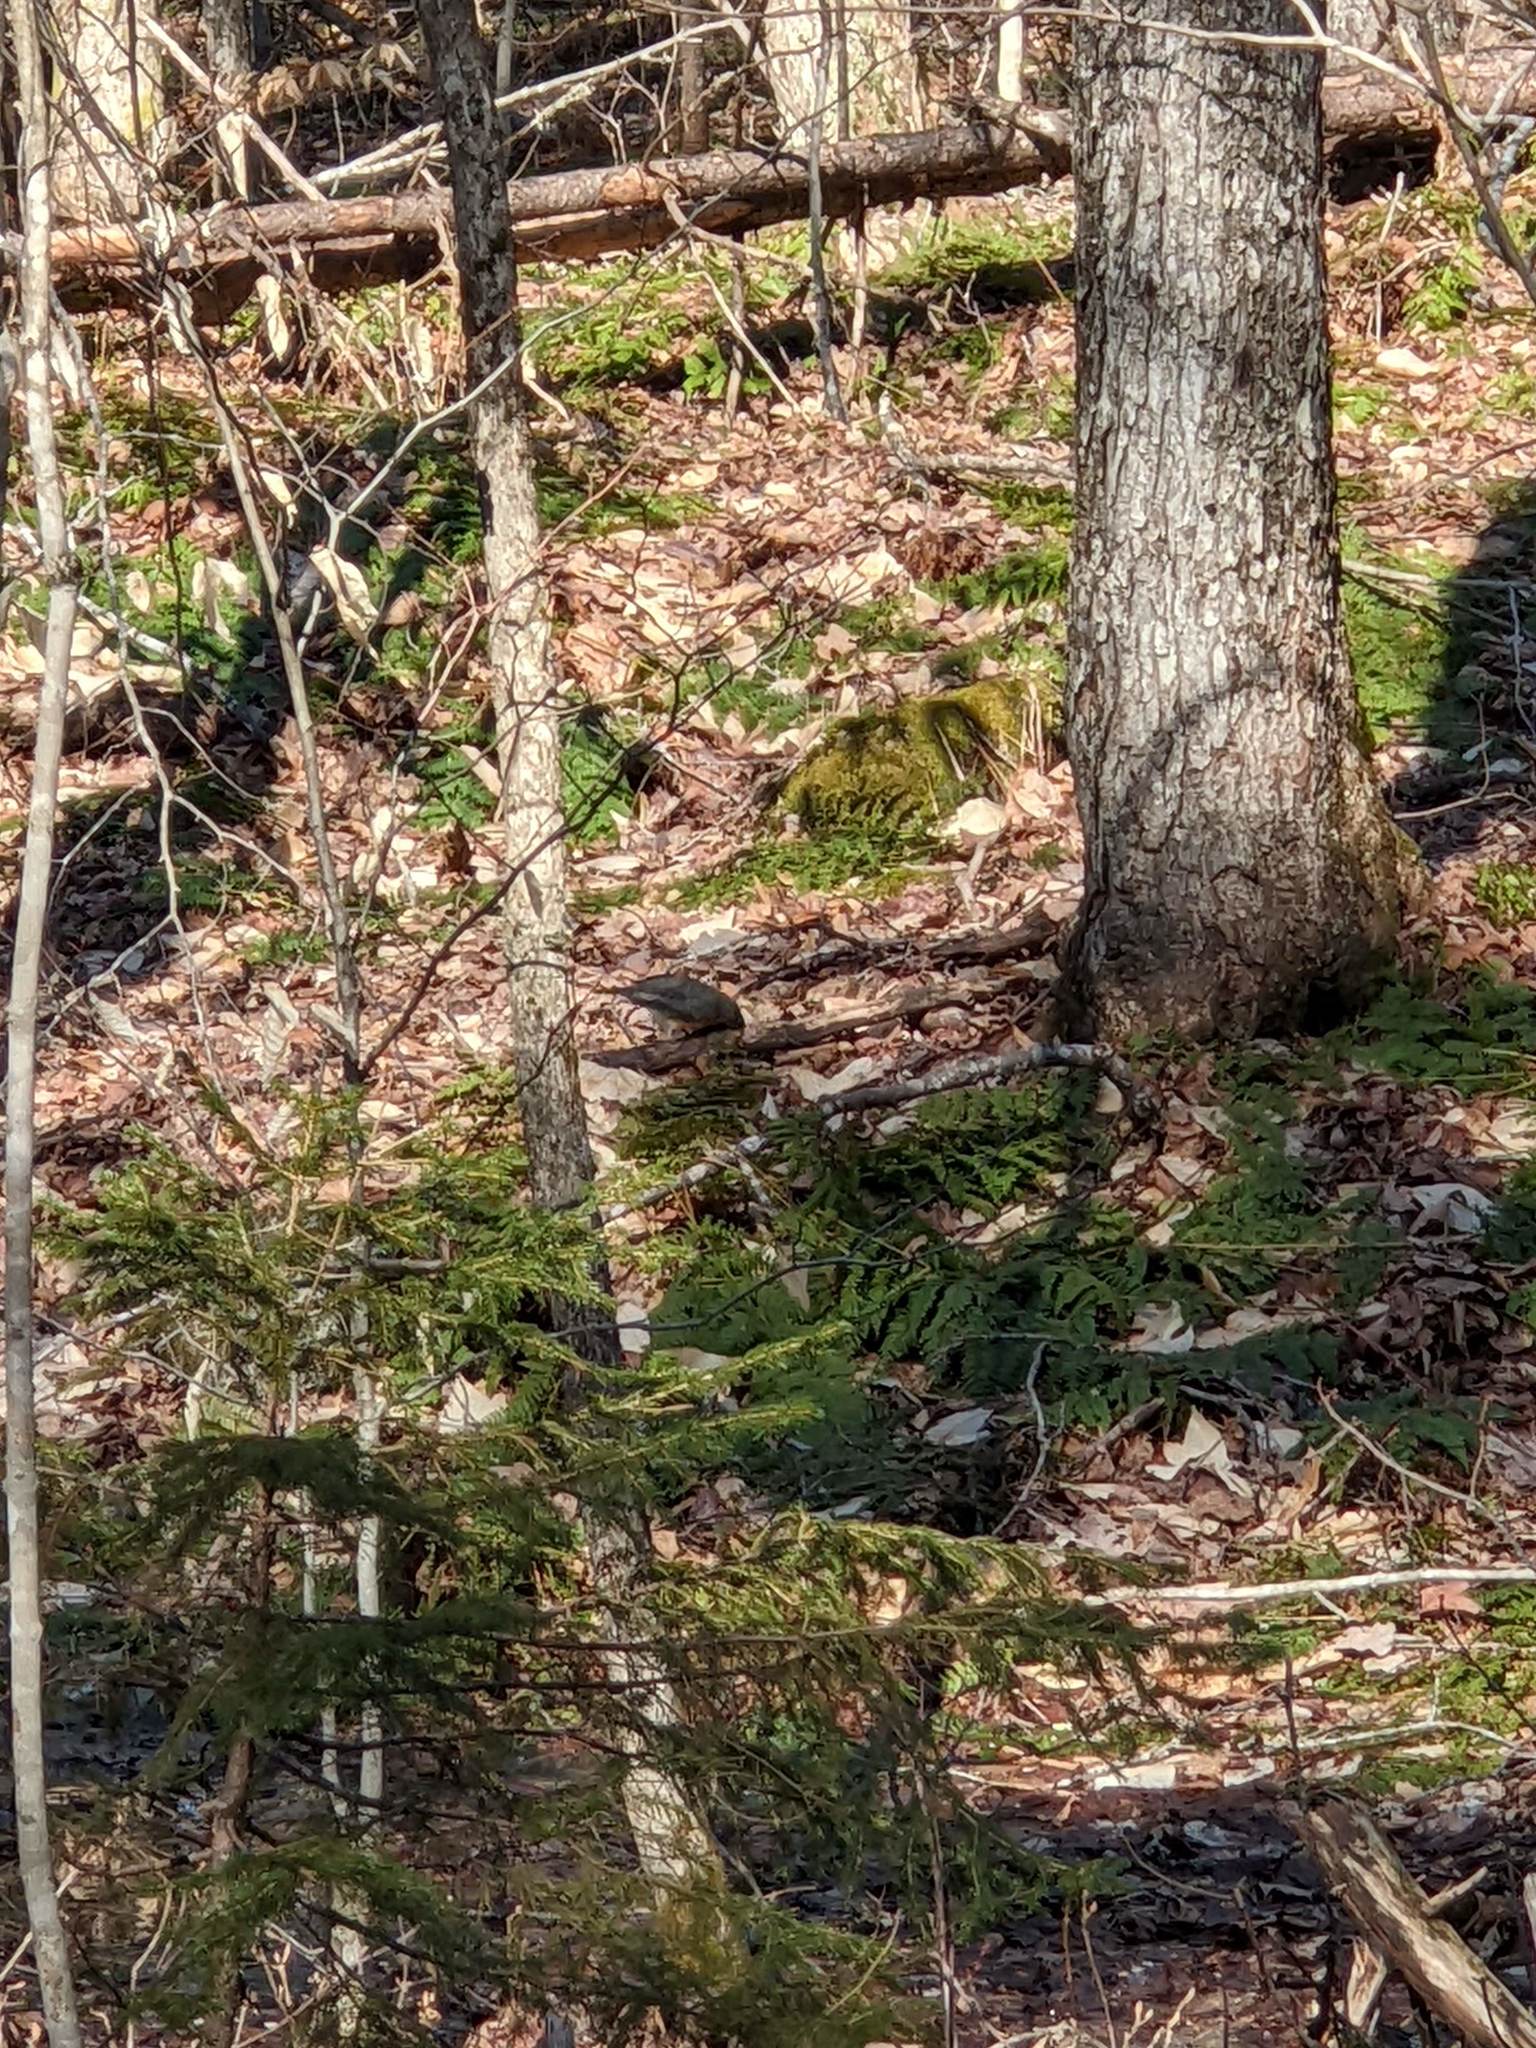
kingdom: Animalia
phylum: Chordata
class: Aves
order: Passeriformes
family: Turdidae
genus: Turdus
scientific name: Turdus migratorius
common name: American robin
